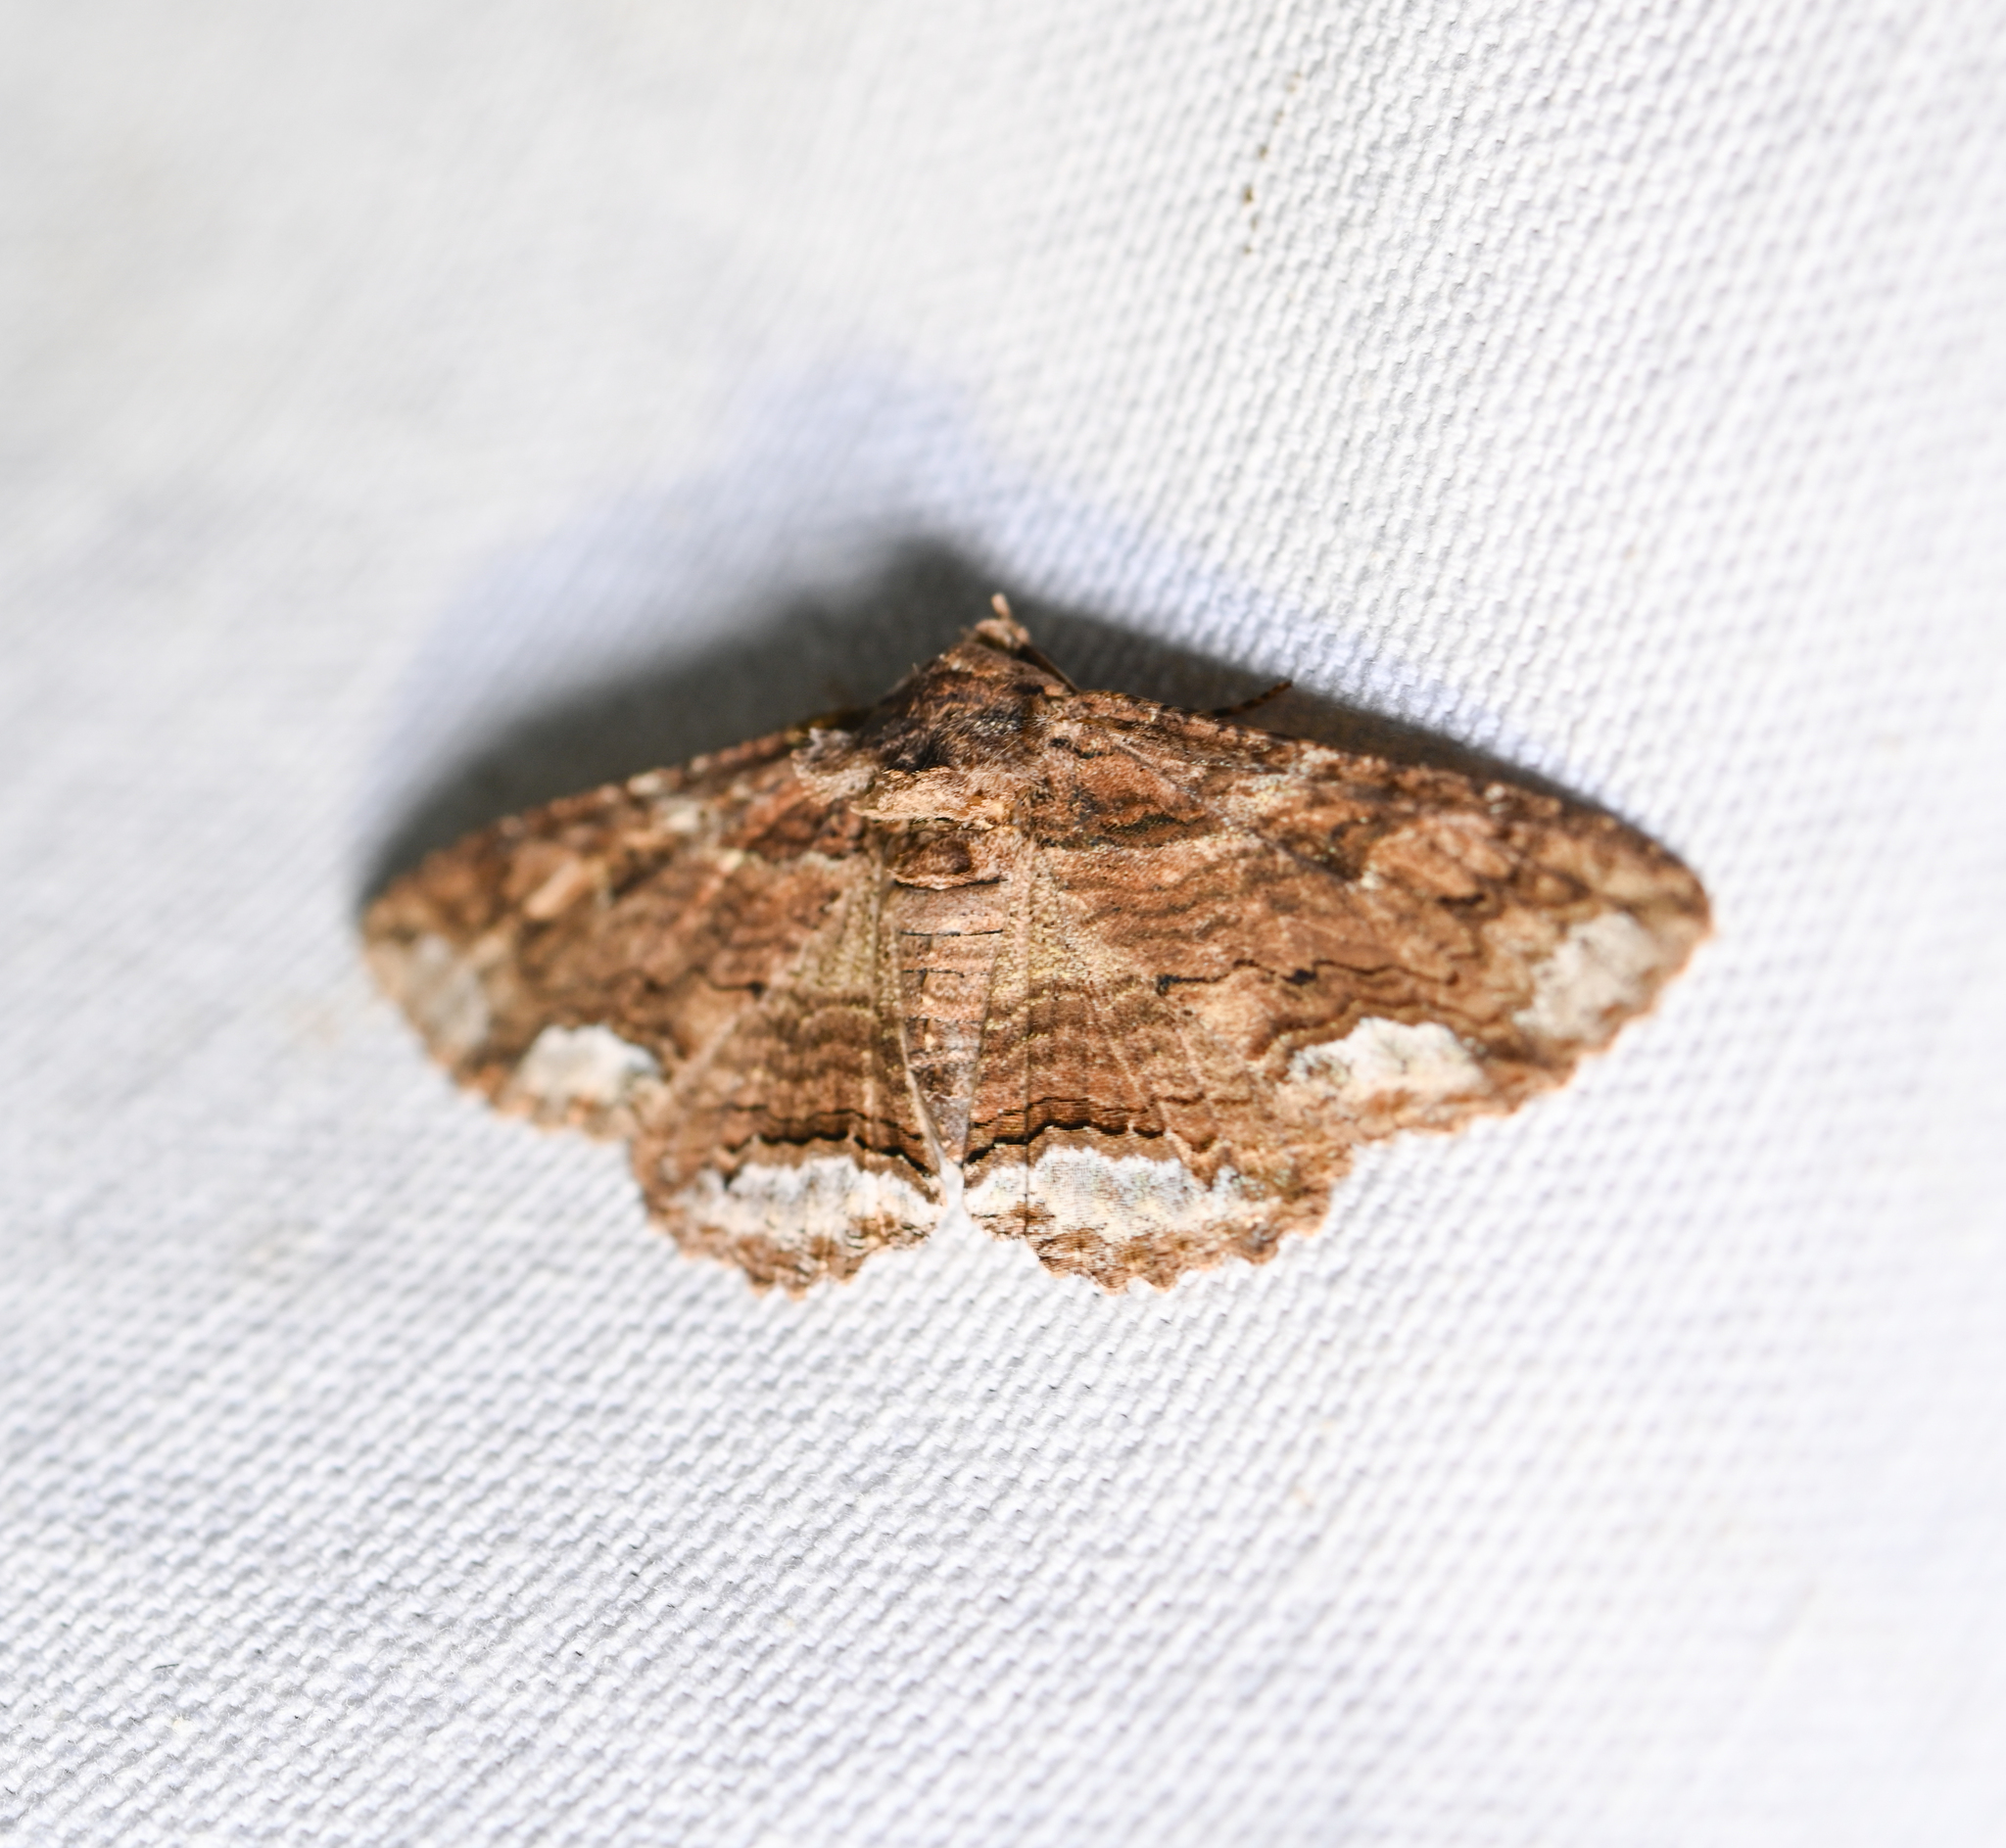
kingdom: Animalia
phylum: Arthropoda
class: Insecta
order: Lepidoptera
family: Erebidae
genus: Zale
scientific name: Zale lunata
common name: Lunate zale moth
